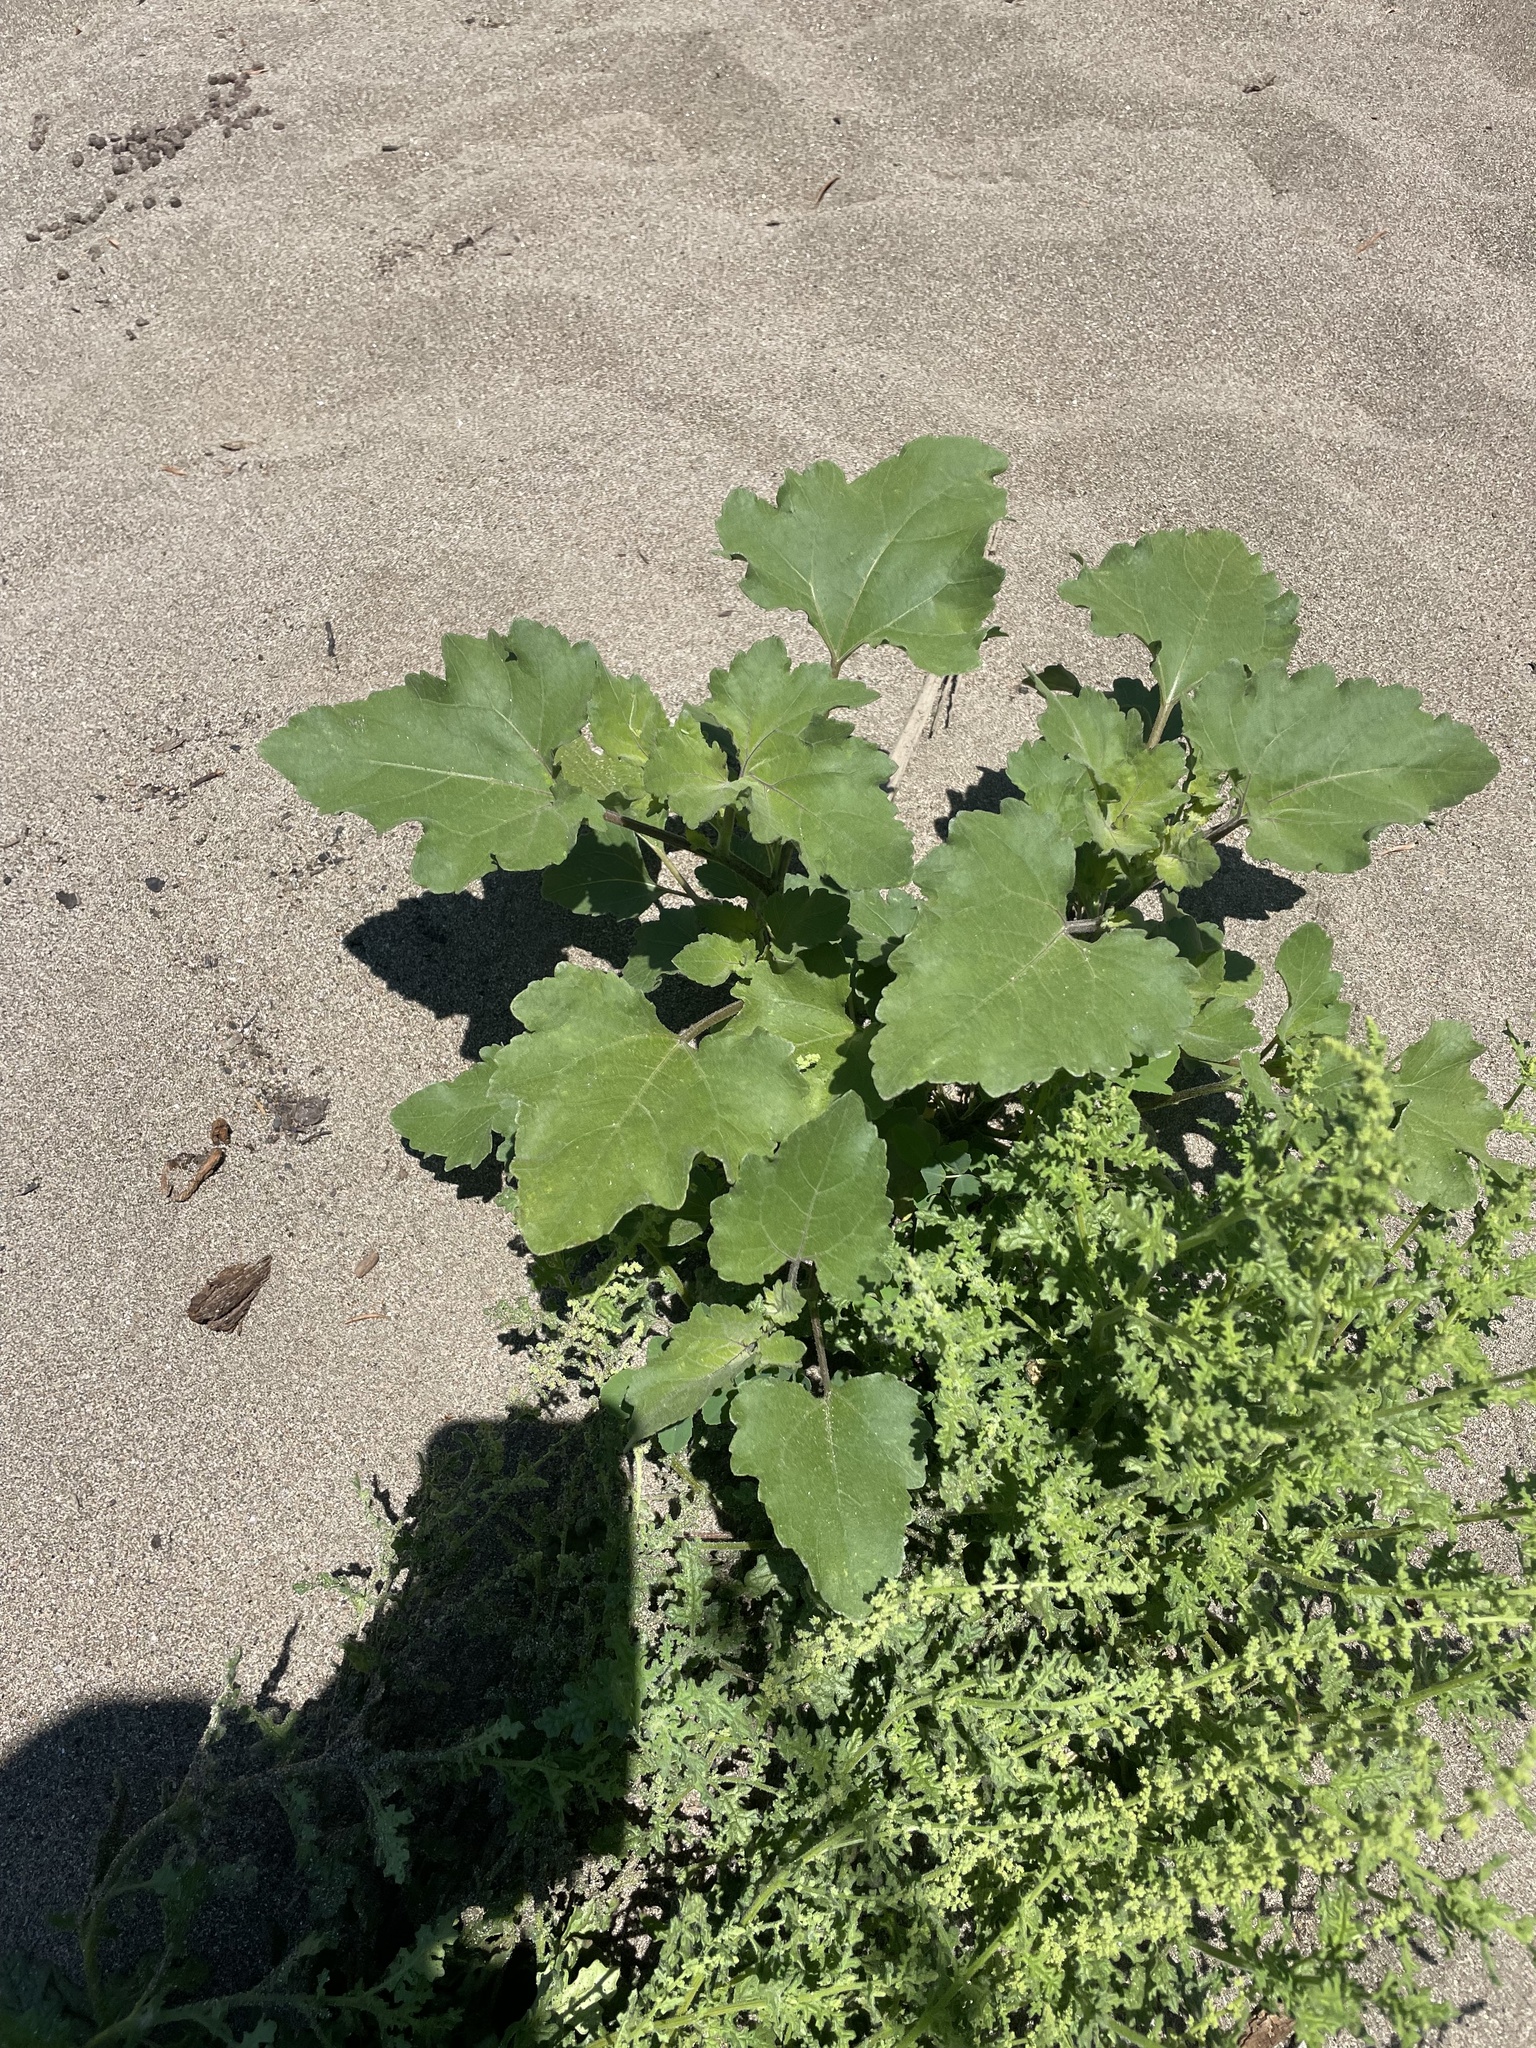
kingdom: Plantae
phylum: Tracheophyta
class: Magnoliopsida
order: Asterales
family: Asteraceae
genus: Xanthium
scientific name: Xanthium strumarium
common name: Rough cocklebur
